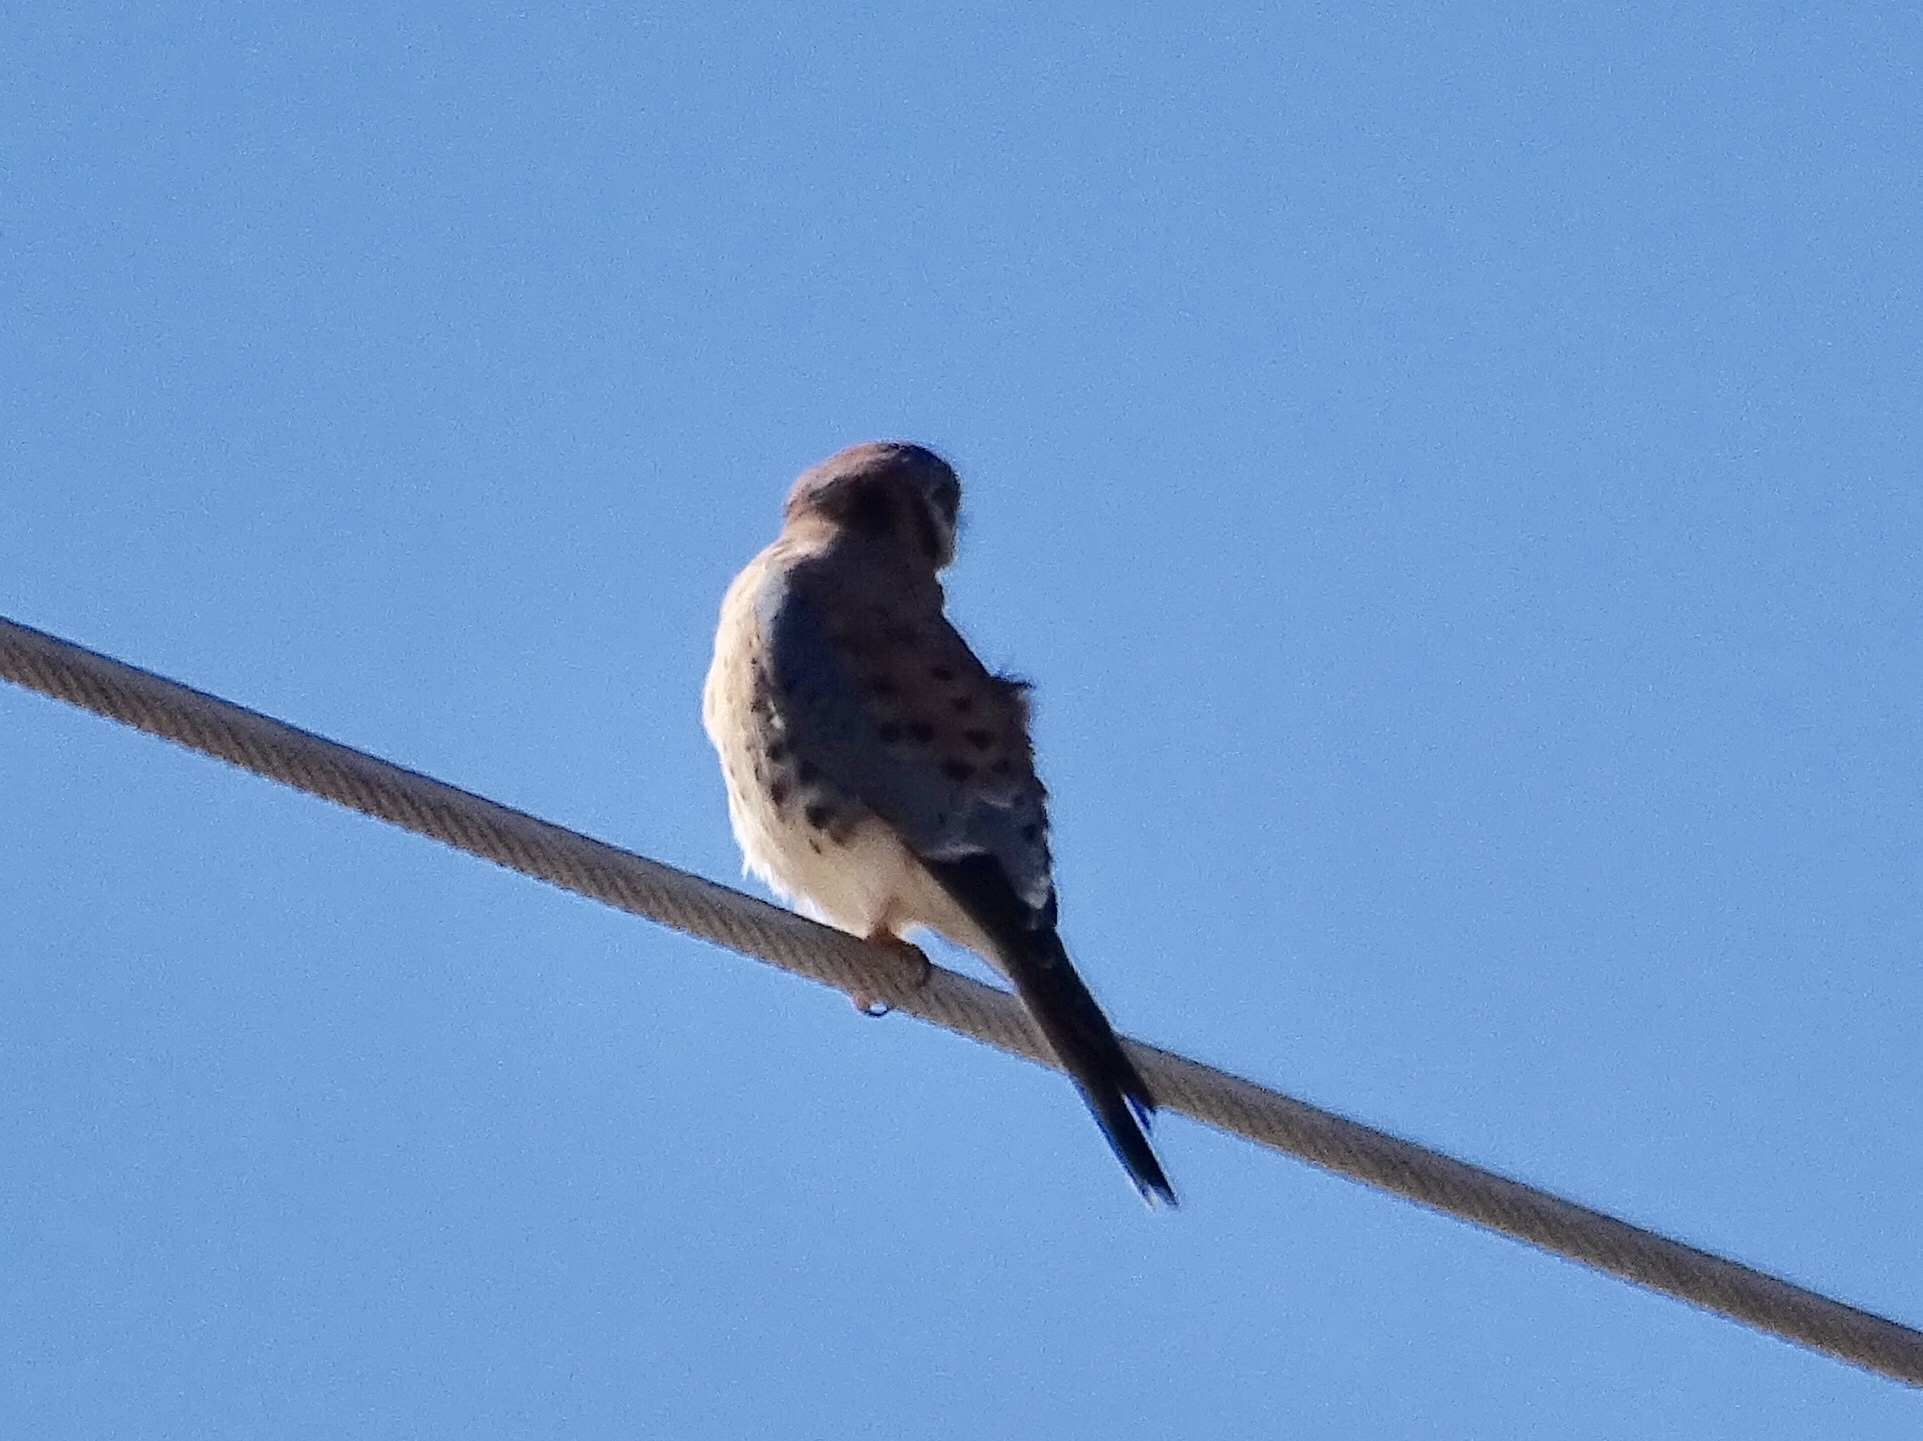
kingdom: Animalia
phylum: Chordata
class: Aves
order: Falconiformes
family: Falconidae
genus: Falco
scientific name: Falco sparverius
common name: American kestrel
